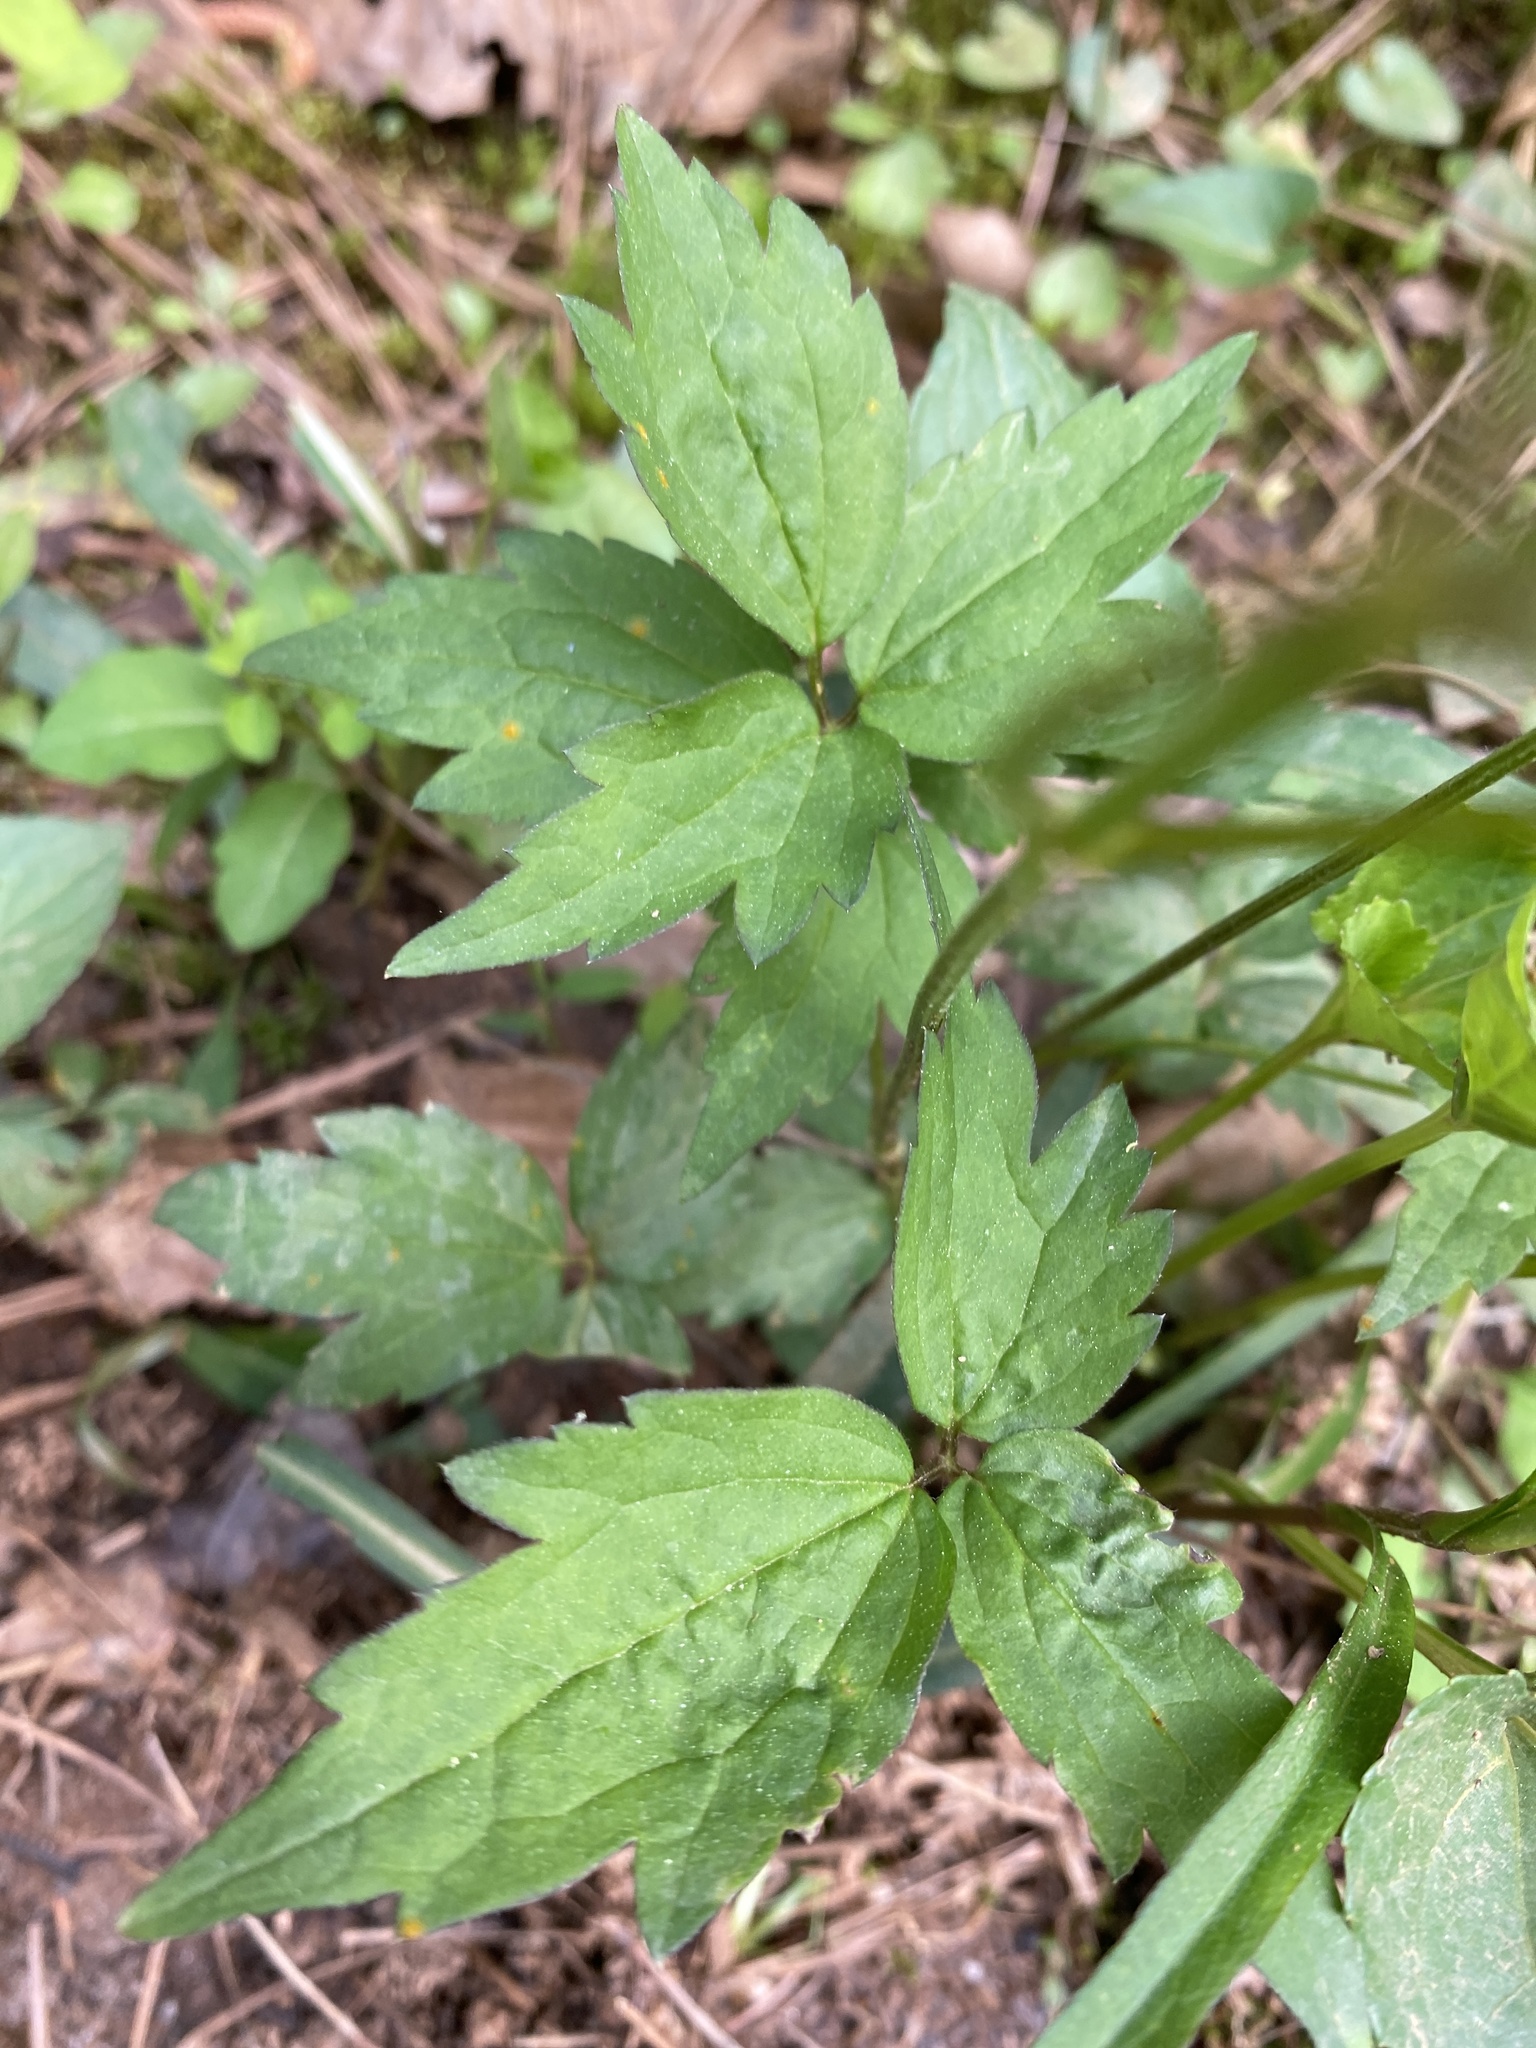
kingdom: Plantae
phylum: Tracheophyta
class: Magnoliopsida
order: Ranunculales
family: Ranunculaceae
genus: Clematis
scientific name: Clematis virginiana
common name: Virgin's-bower
